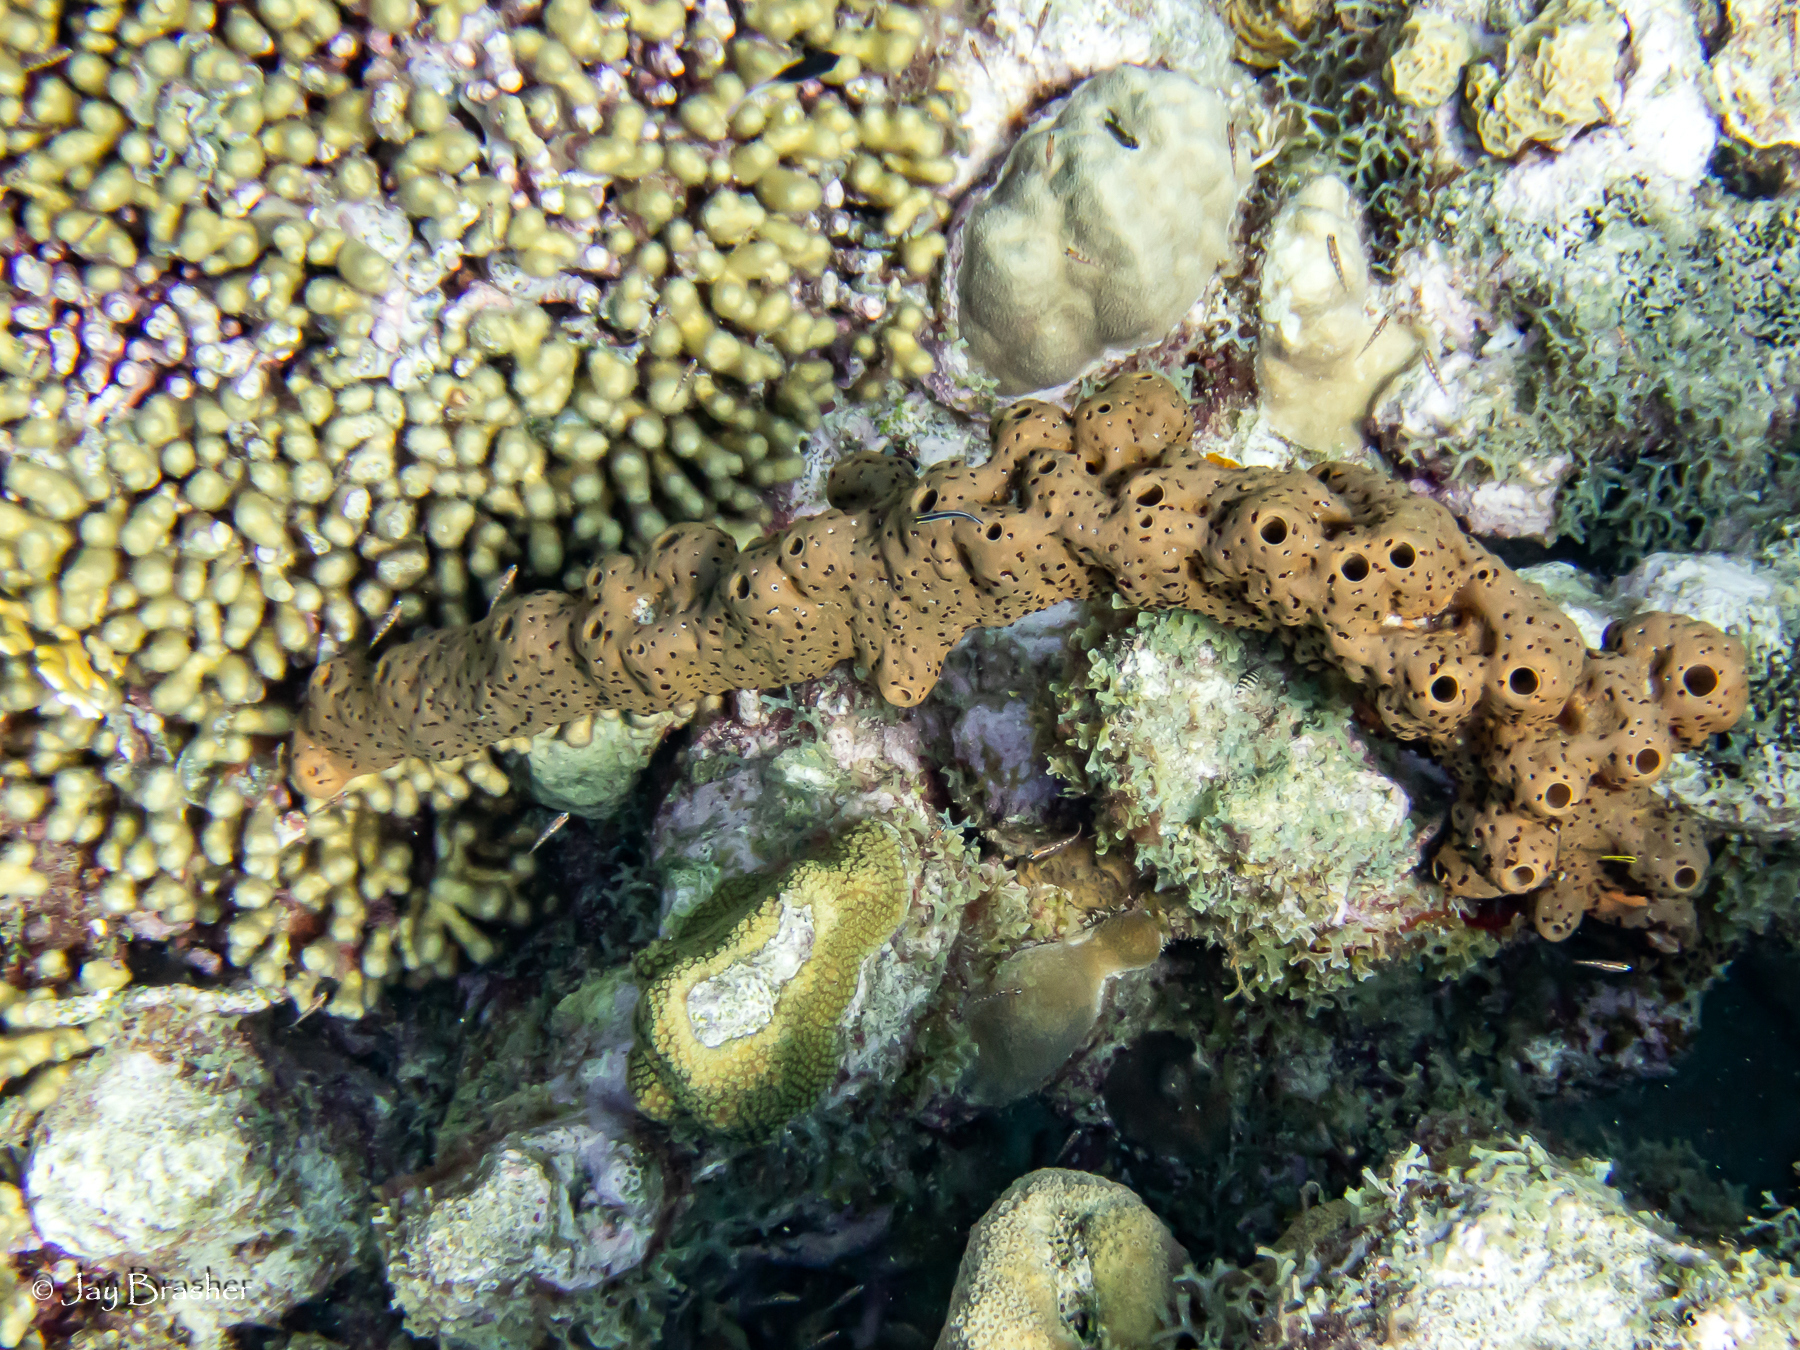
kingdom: Animalia
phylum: Porifera
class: Demospongiae
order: Agelasida
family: Agelasidae
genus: Agelas
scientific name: Agelas conifera
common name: Brown tube sponge
